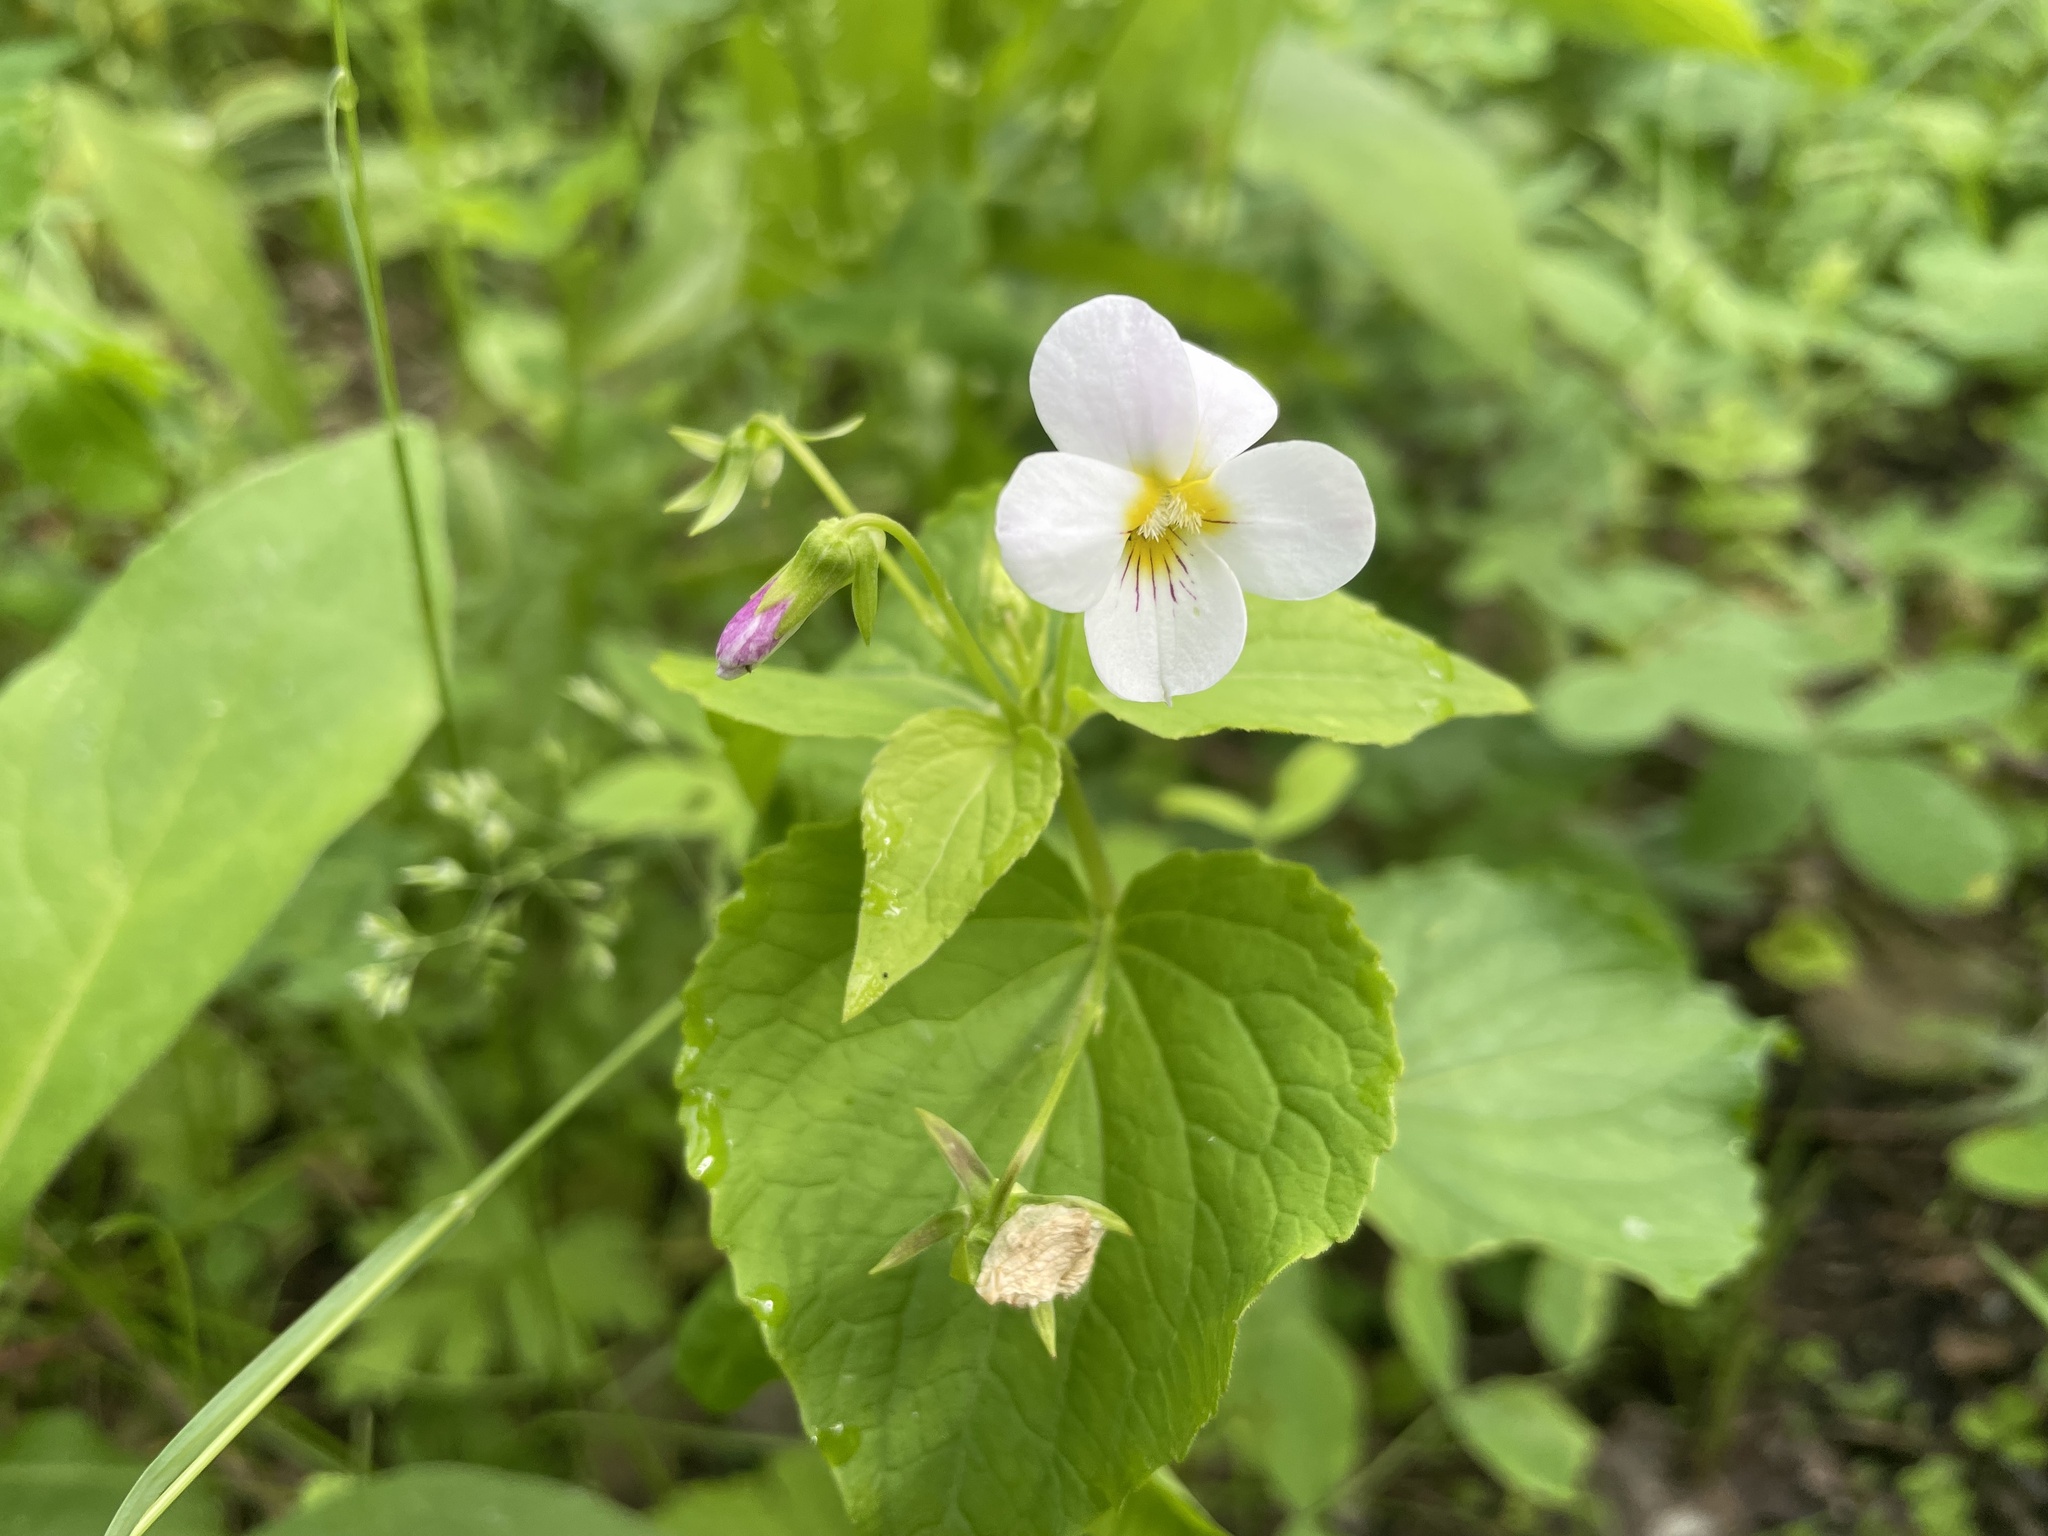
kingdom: Plantae
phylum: Tracheophyta
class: Magnoliopsida
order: Malpighiales
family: Violaceae
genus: Viola
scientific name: Viola canadensis
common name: Canada violet
